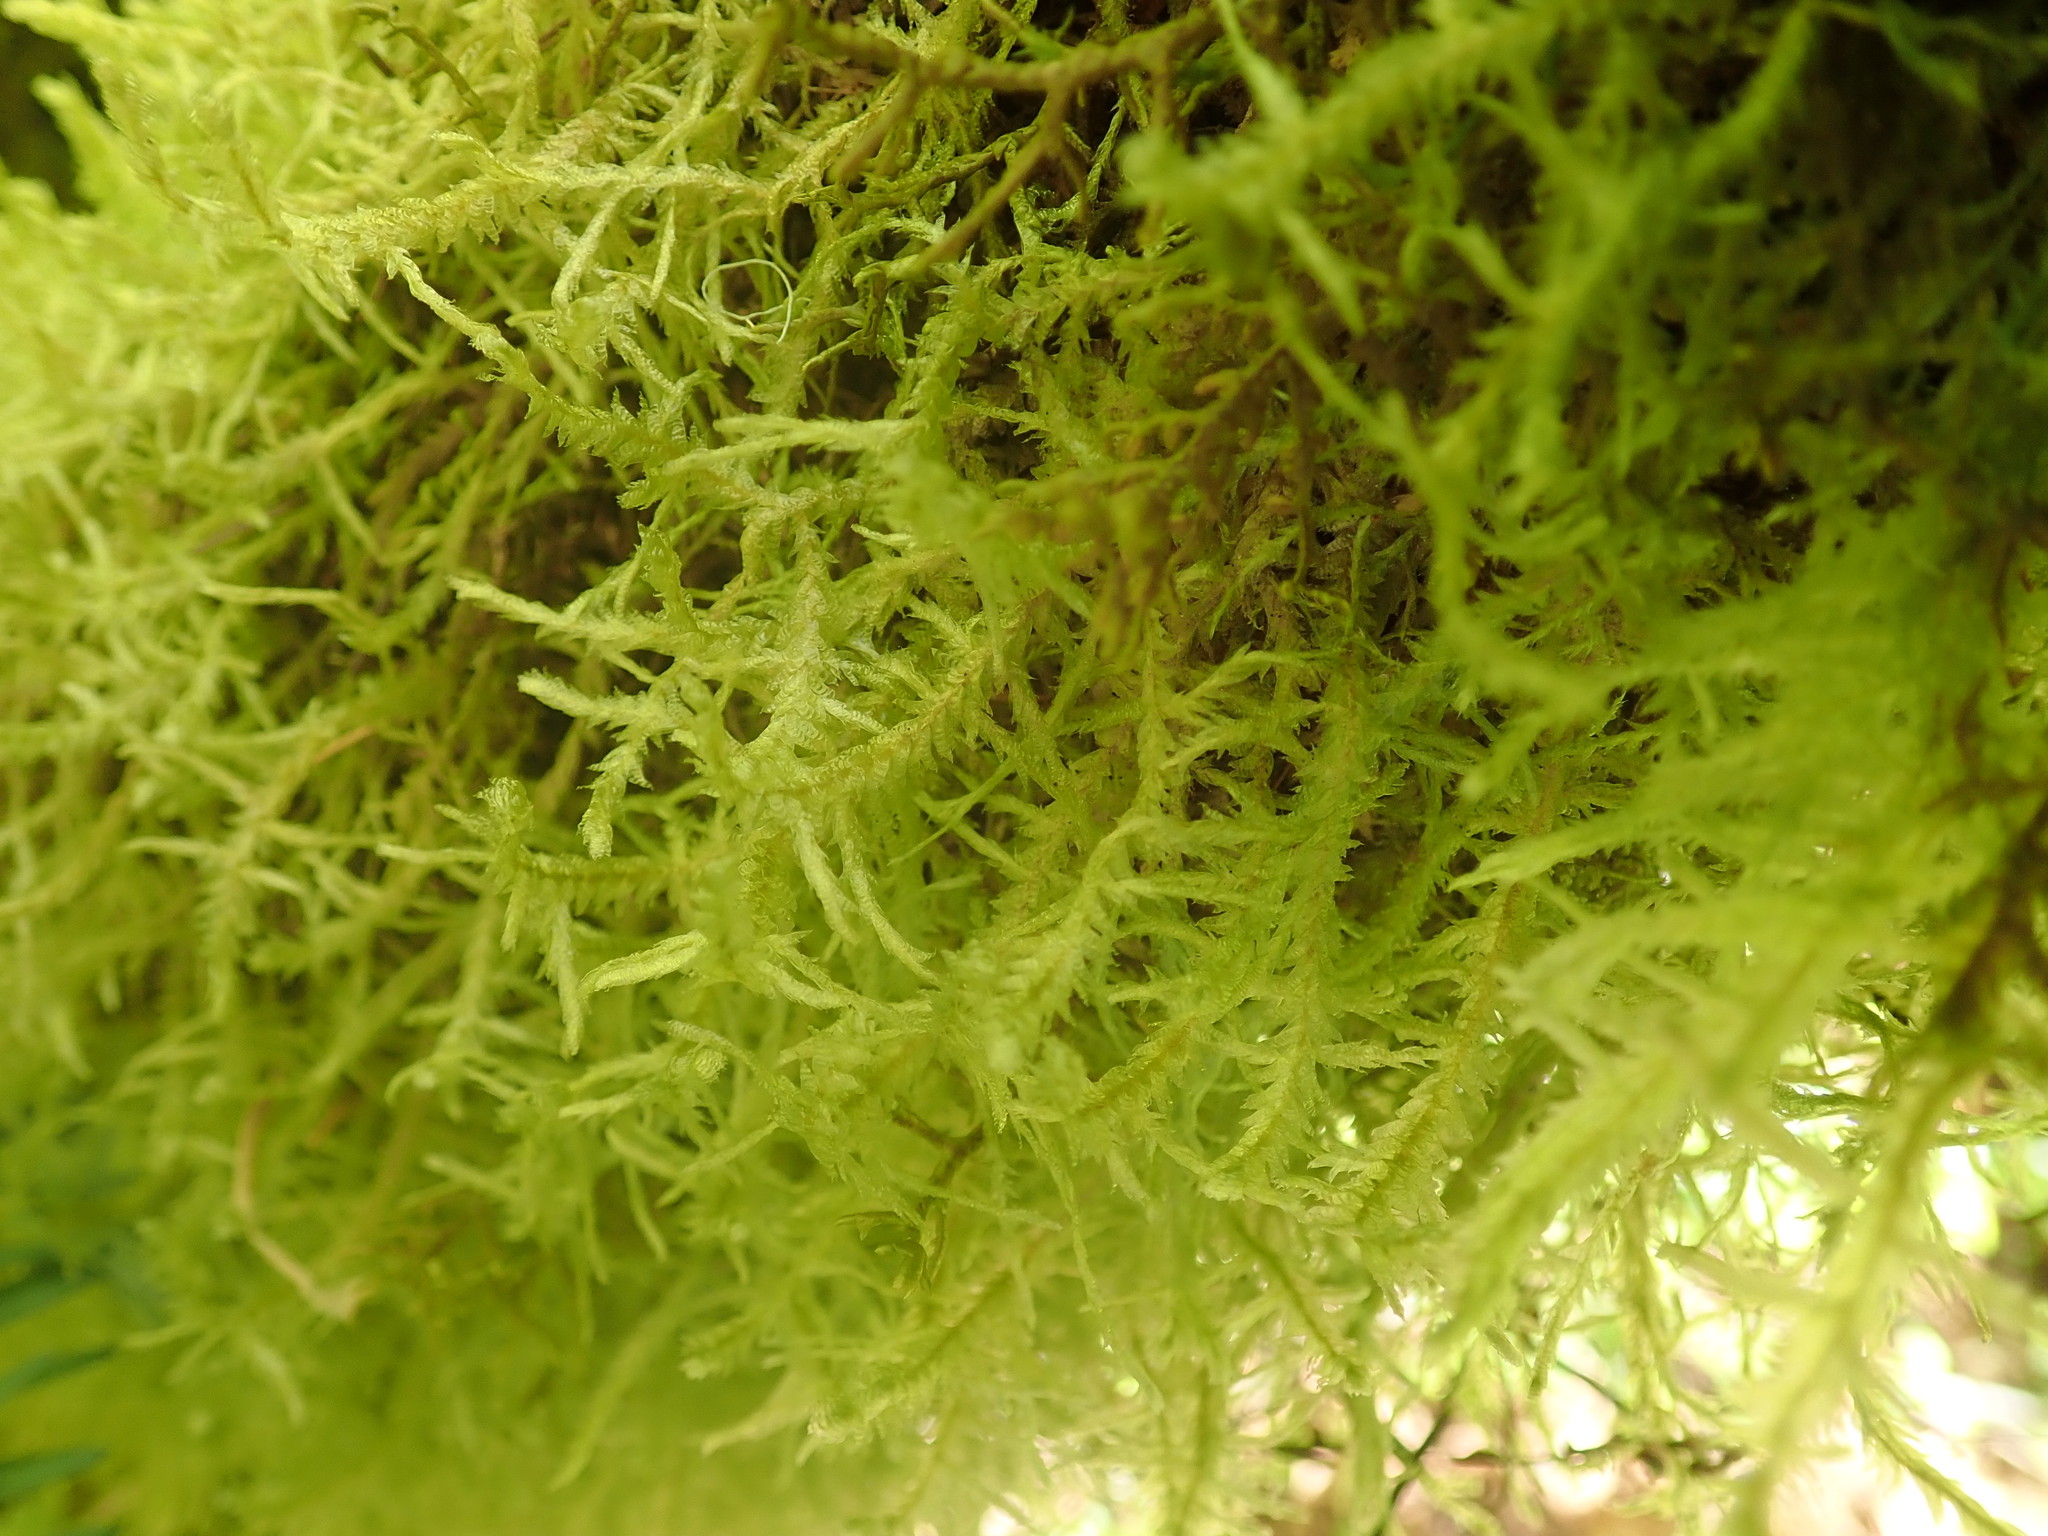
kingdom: Plantae
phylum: Bryophyta
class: Bryopsida
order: Hypnales
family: Neckeraceae
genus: Neckera
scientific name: Neckera douglasii
